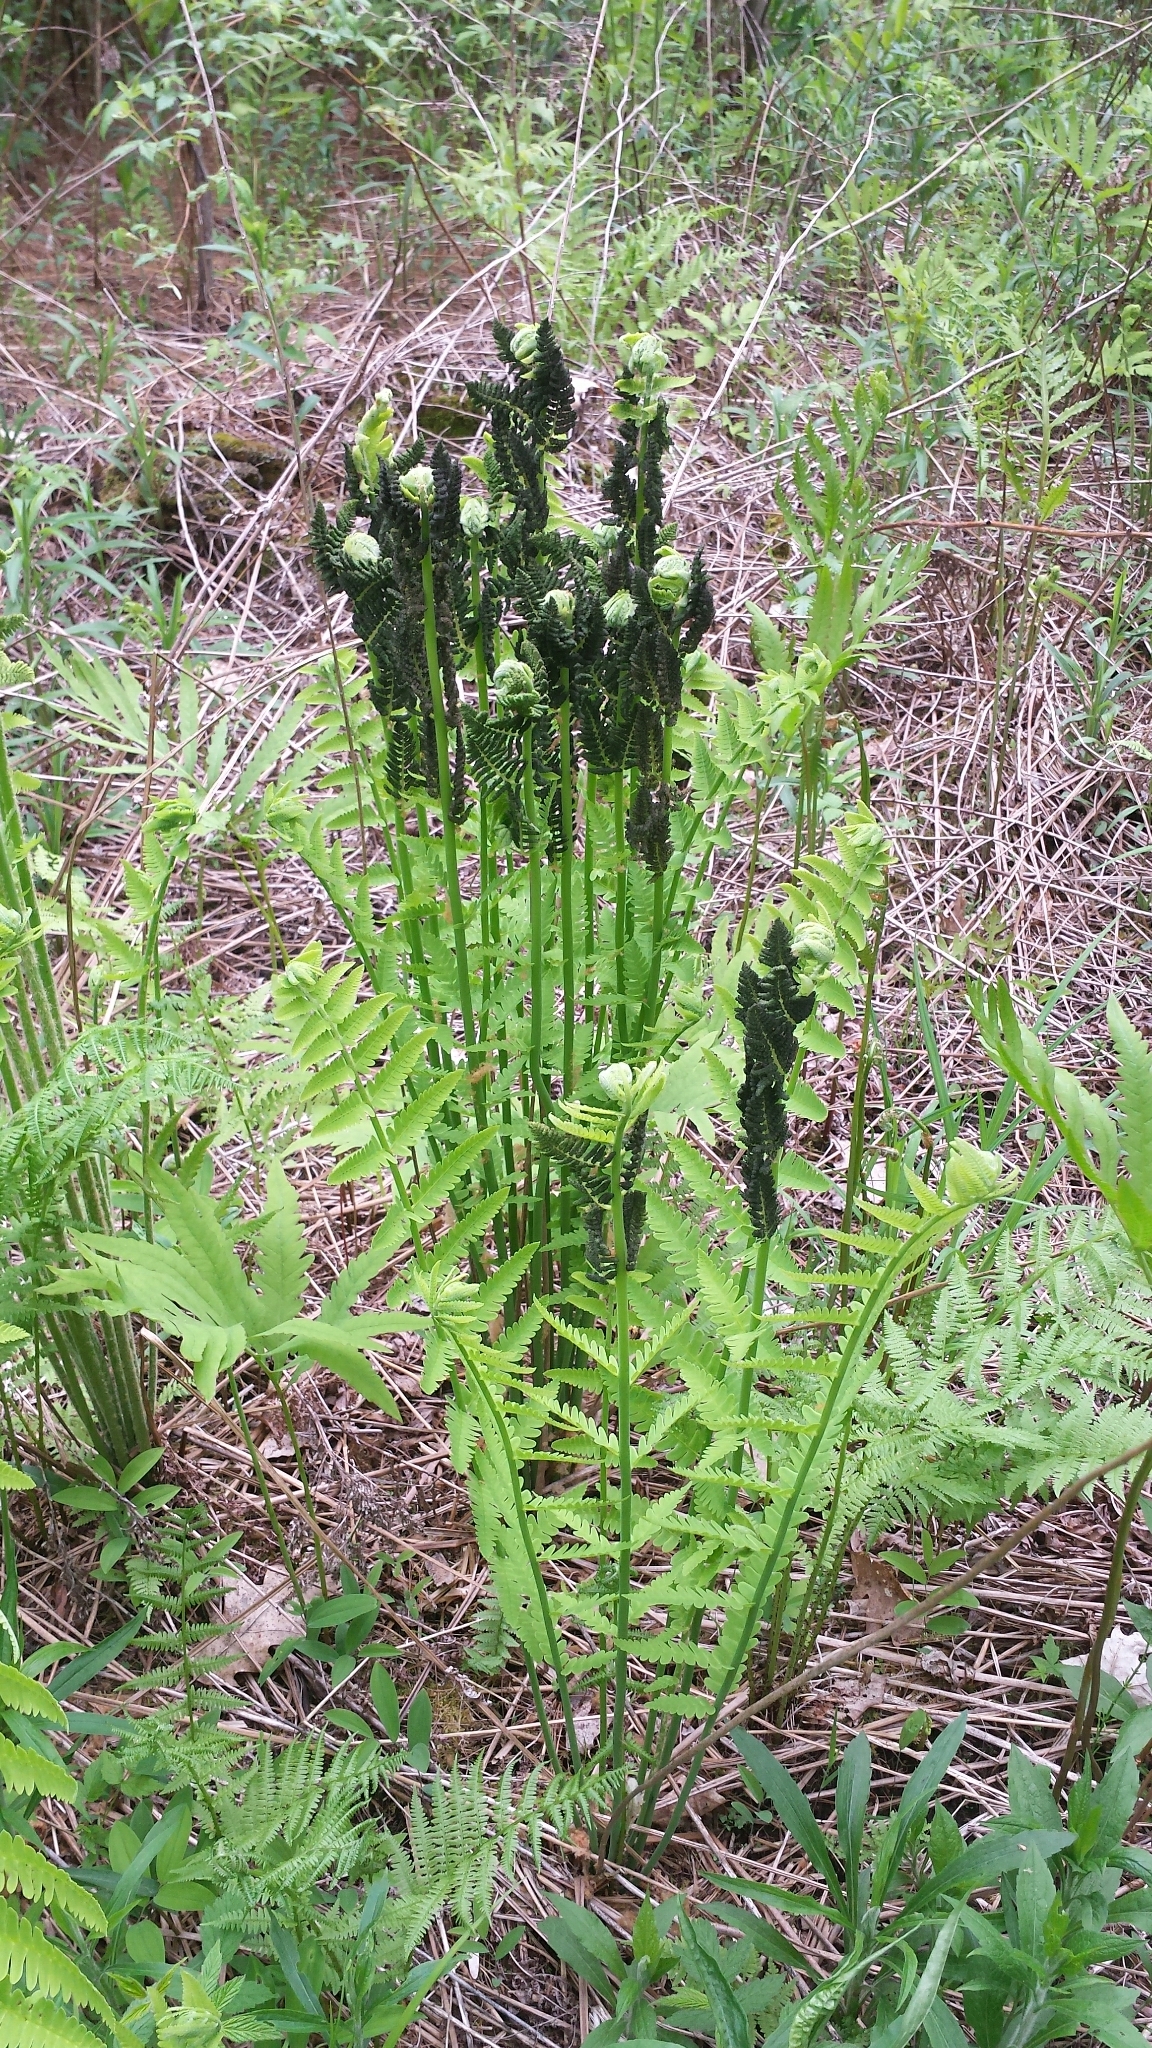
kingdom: Plantae
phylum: Tracheophyta
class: Polypodiopsida
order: Osmundales
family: Osmundaceae
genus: Claytosmunda
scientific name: Claytosmunda claytoniana
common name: Clayton's fern
